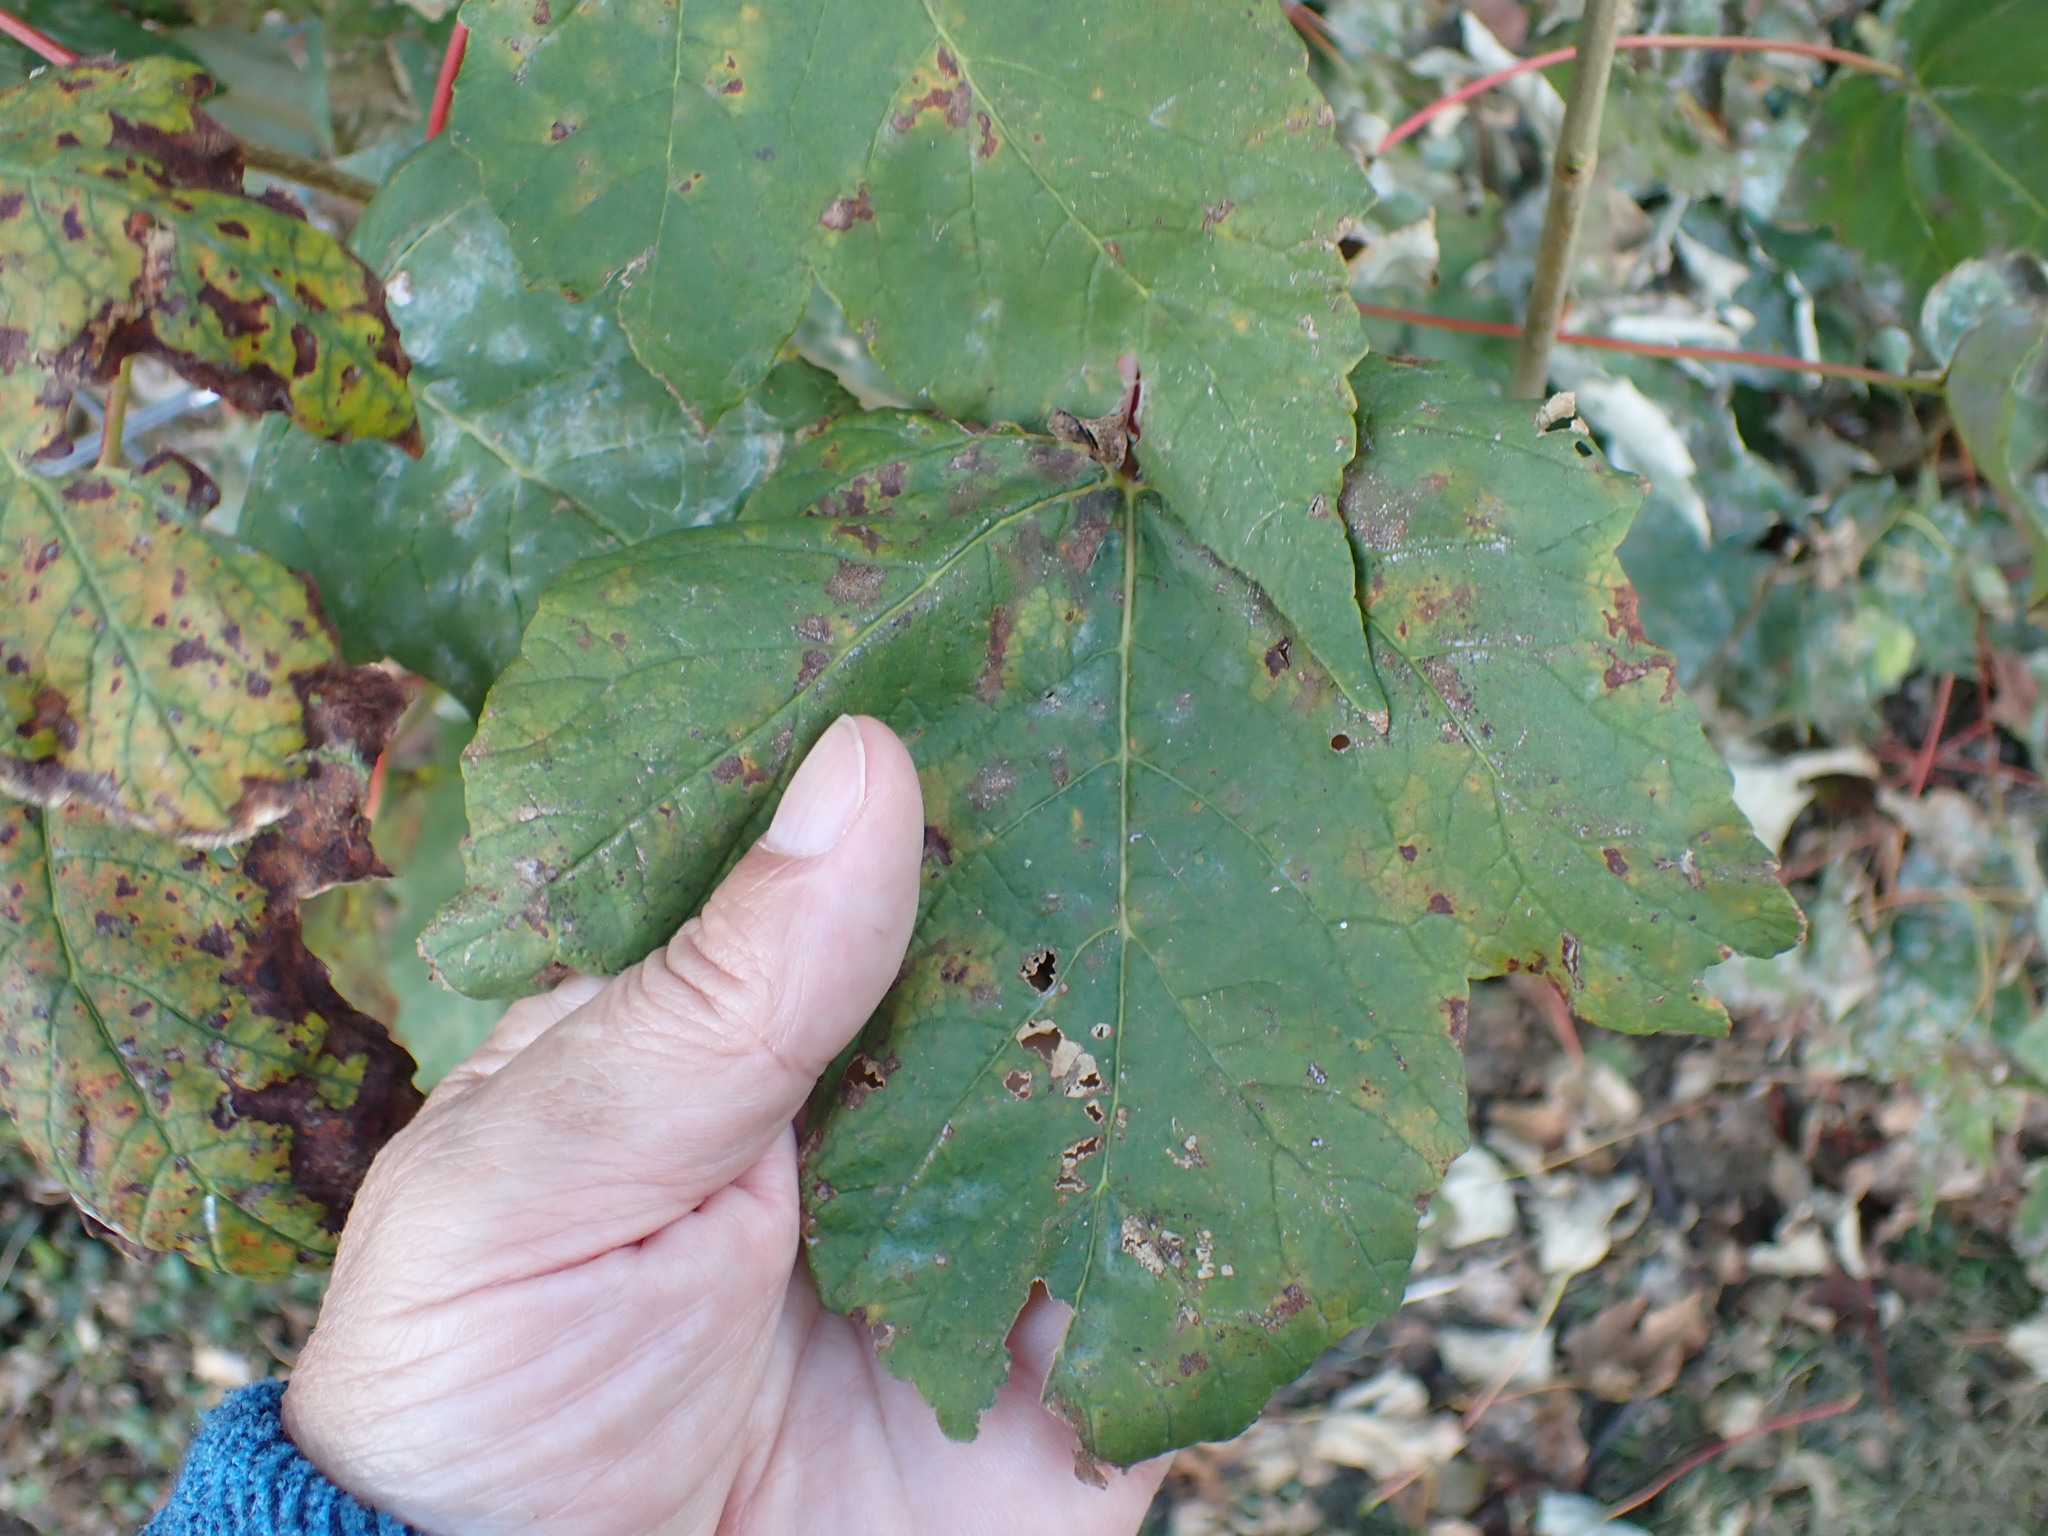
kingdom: Plantae
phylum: Tracheophyta
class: Magnoliopsida
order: Sapindales
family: Sapindaceae
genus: Acer
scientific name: Acer pseudoplatanus
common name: Sycamore
